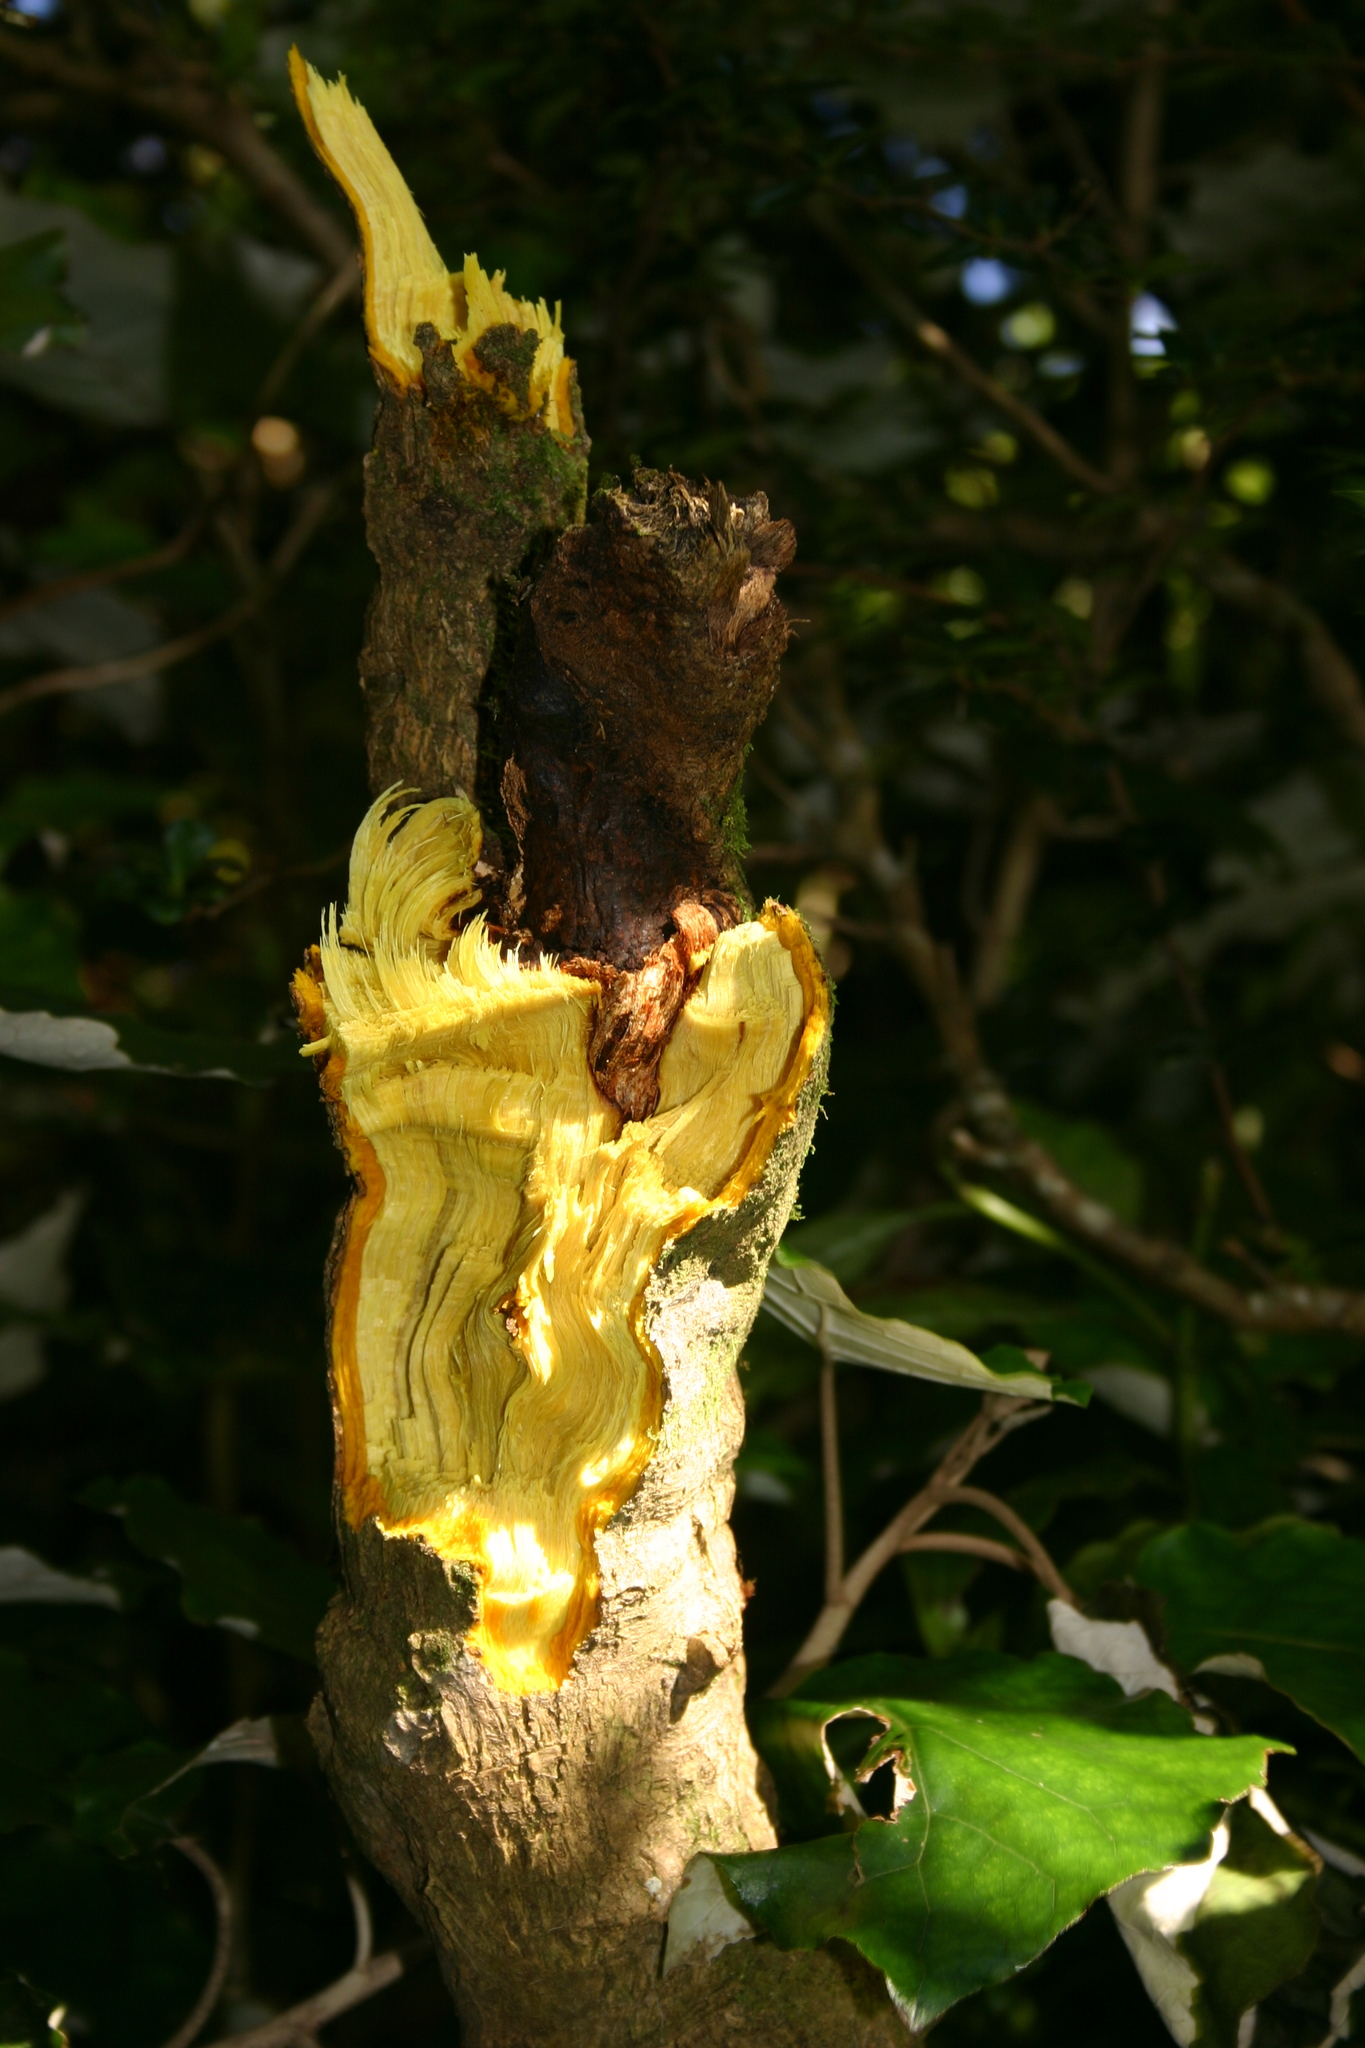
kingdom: Plantae
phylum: Tracheophyta
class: Magnoliopsida
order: Ranunculales
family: Berberidaceae
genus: Berberis
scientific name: Berberis darwinii
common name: Darwin's barberry
